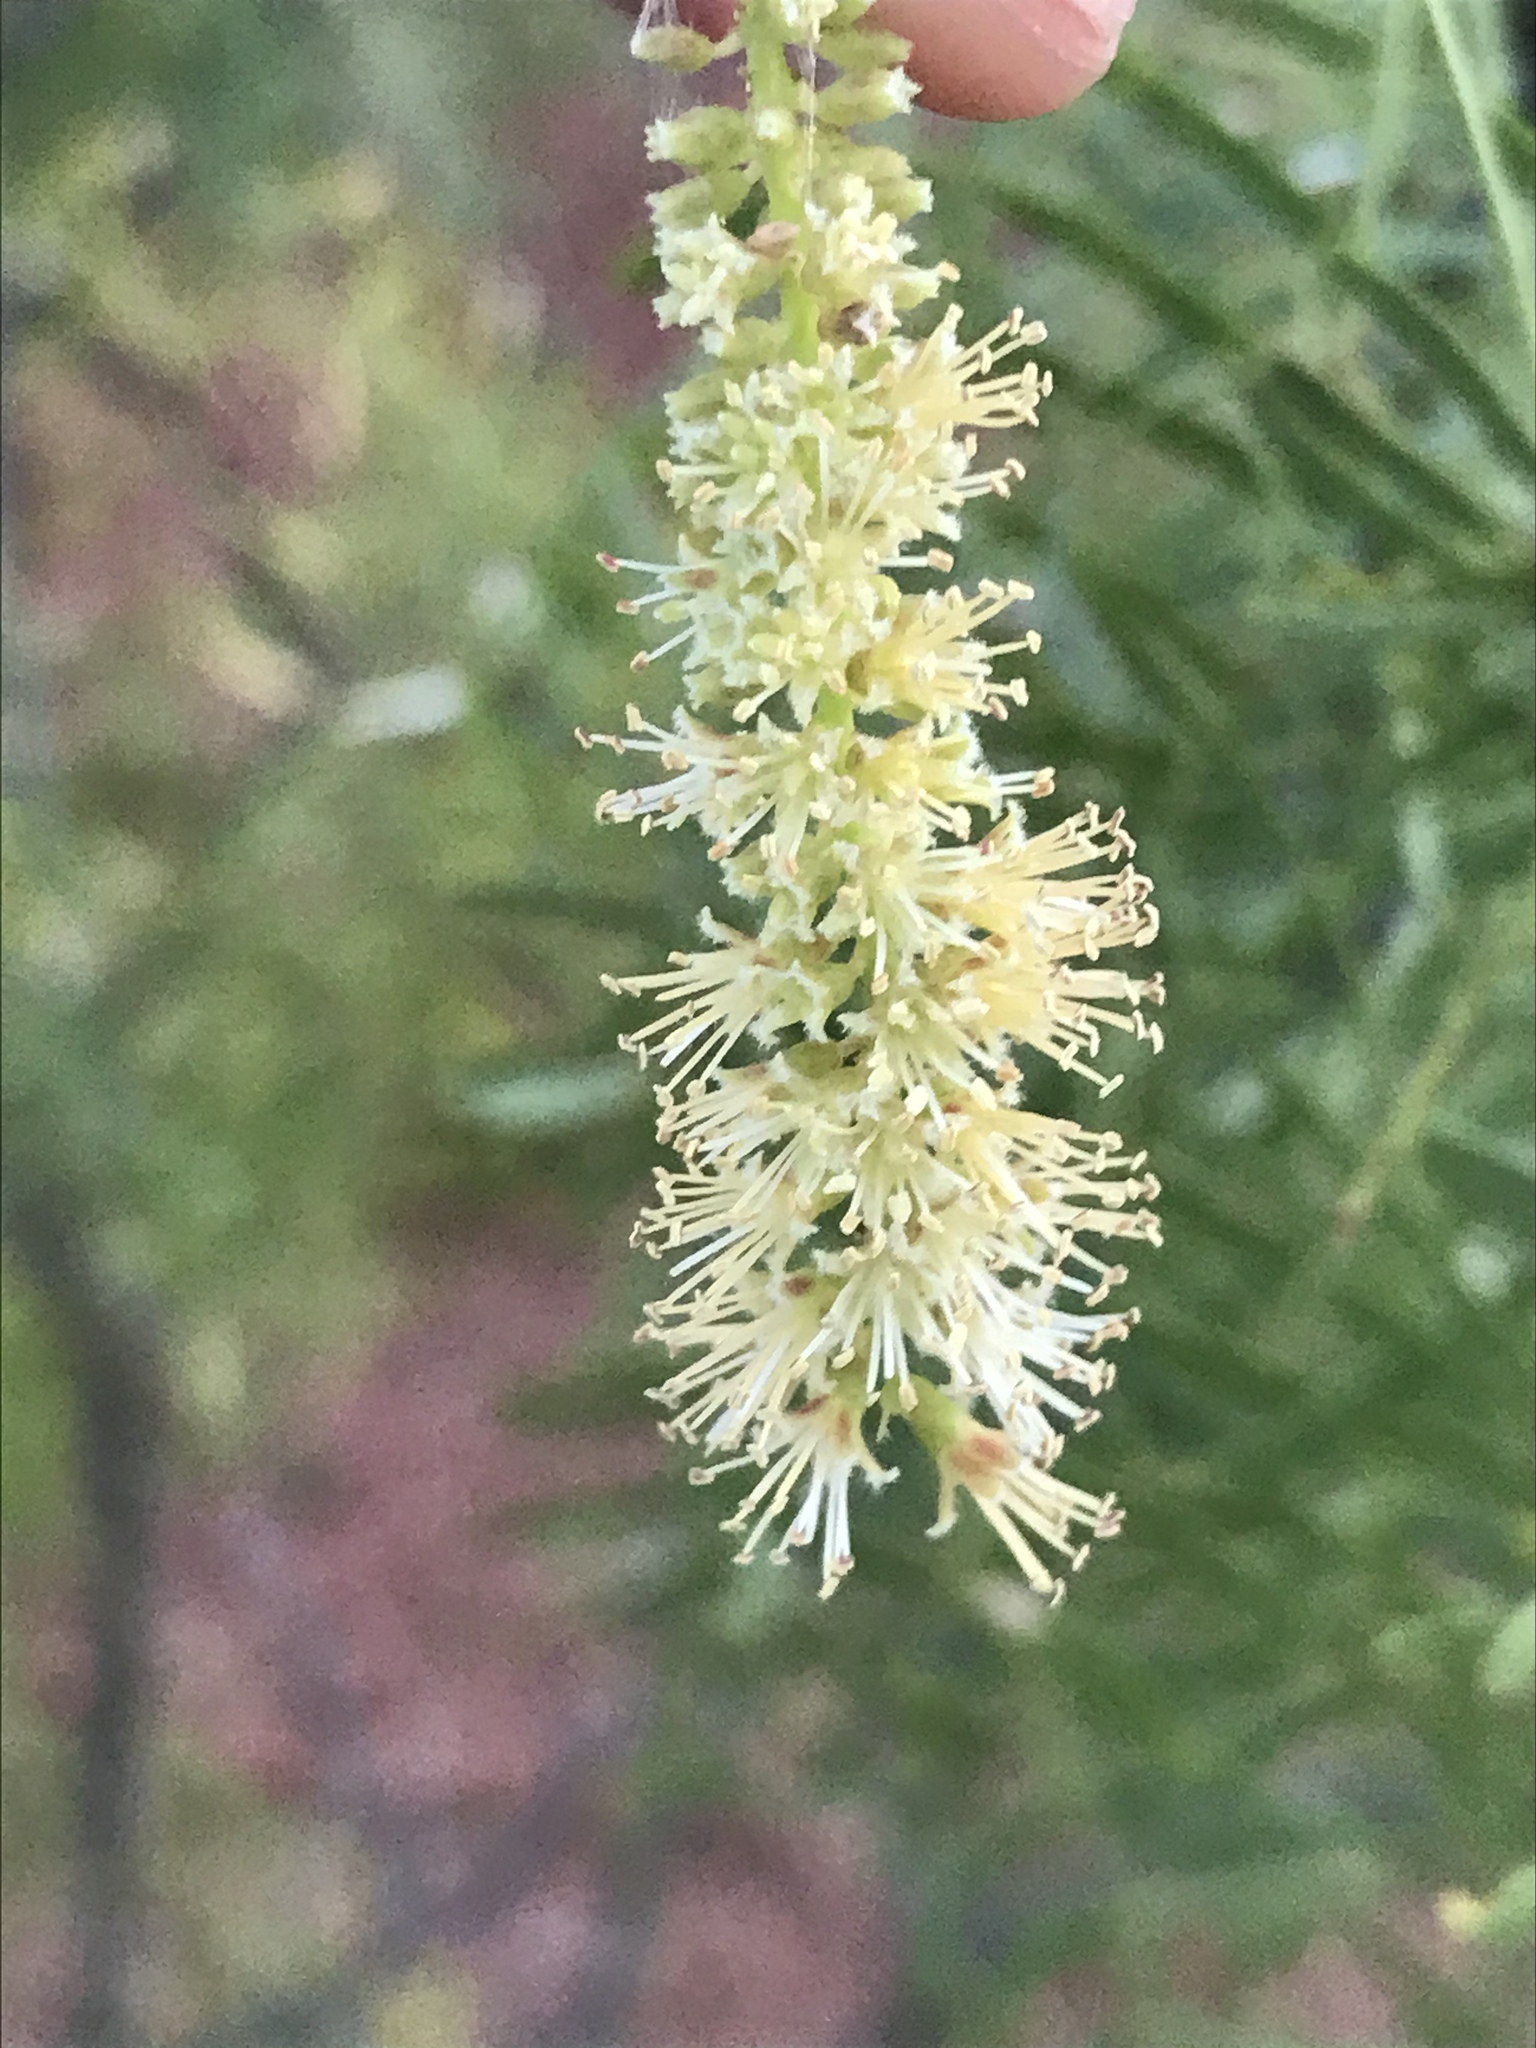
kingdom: Plantae
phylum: Tracheophyta
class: Magnoliopsida
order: Fabales
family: Fabaceae
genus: Prosopis
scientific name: Prosopis glandulosa
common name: Honey mesquite
